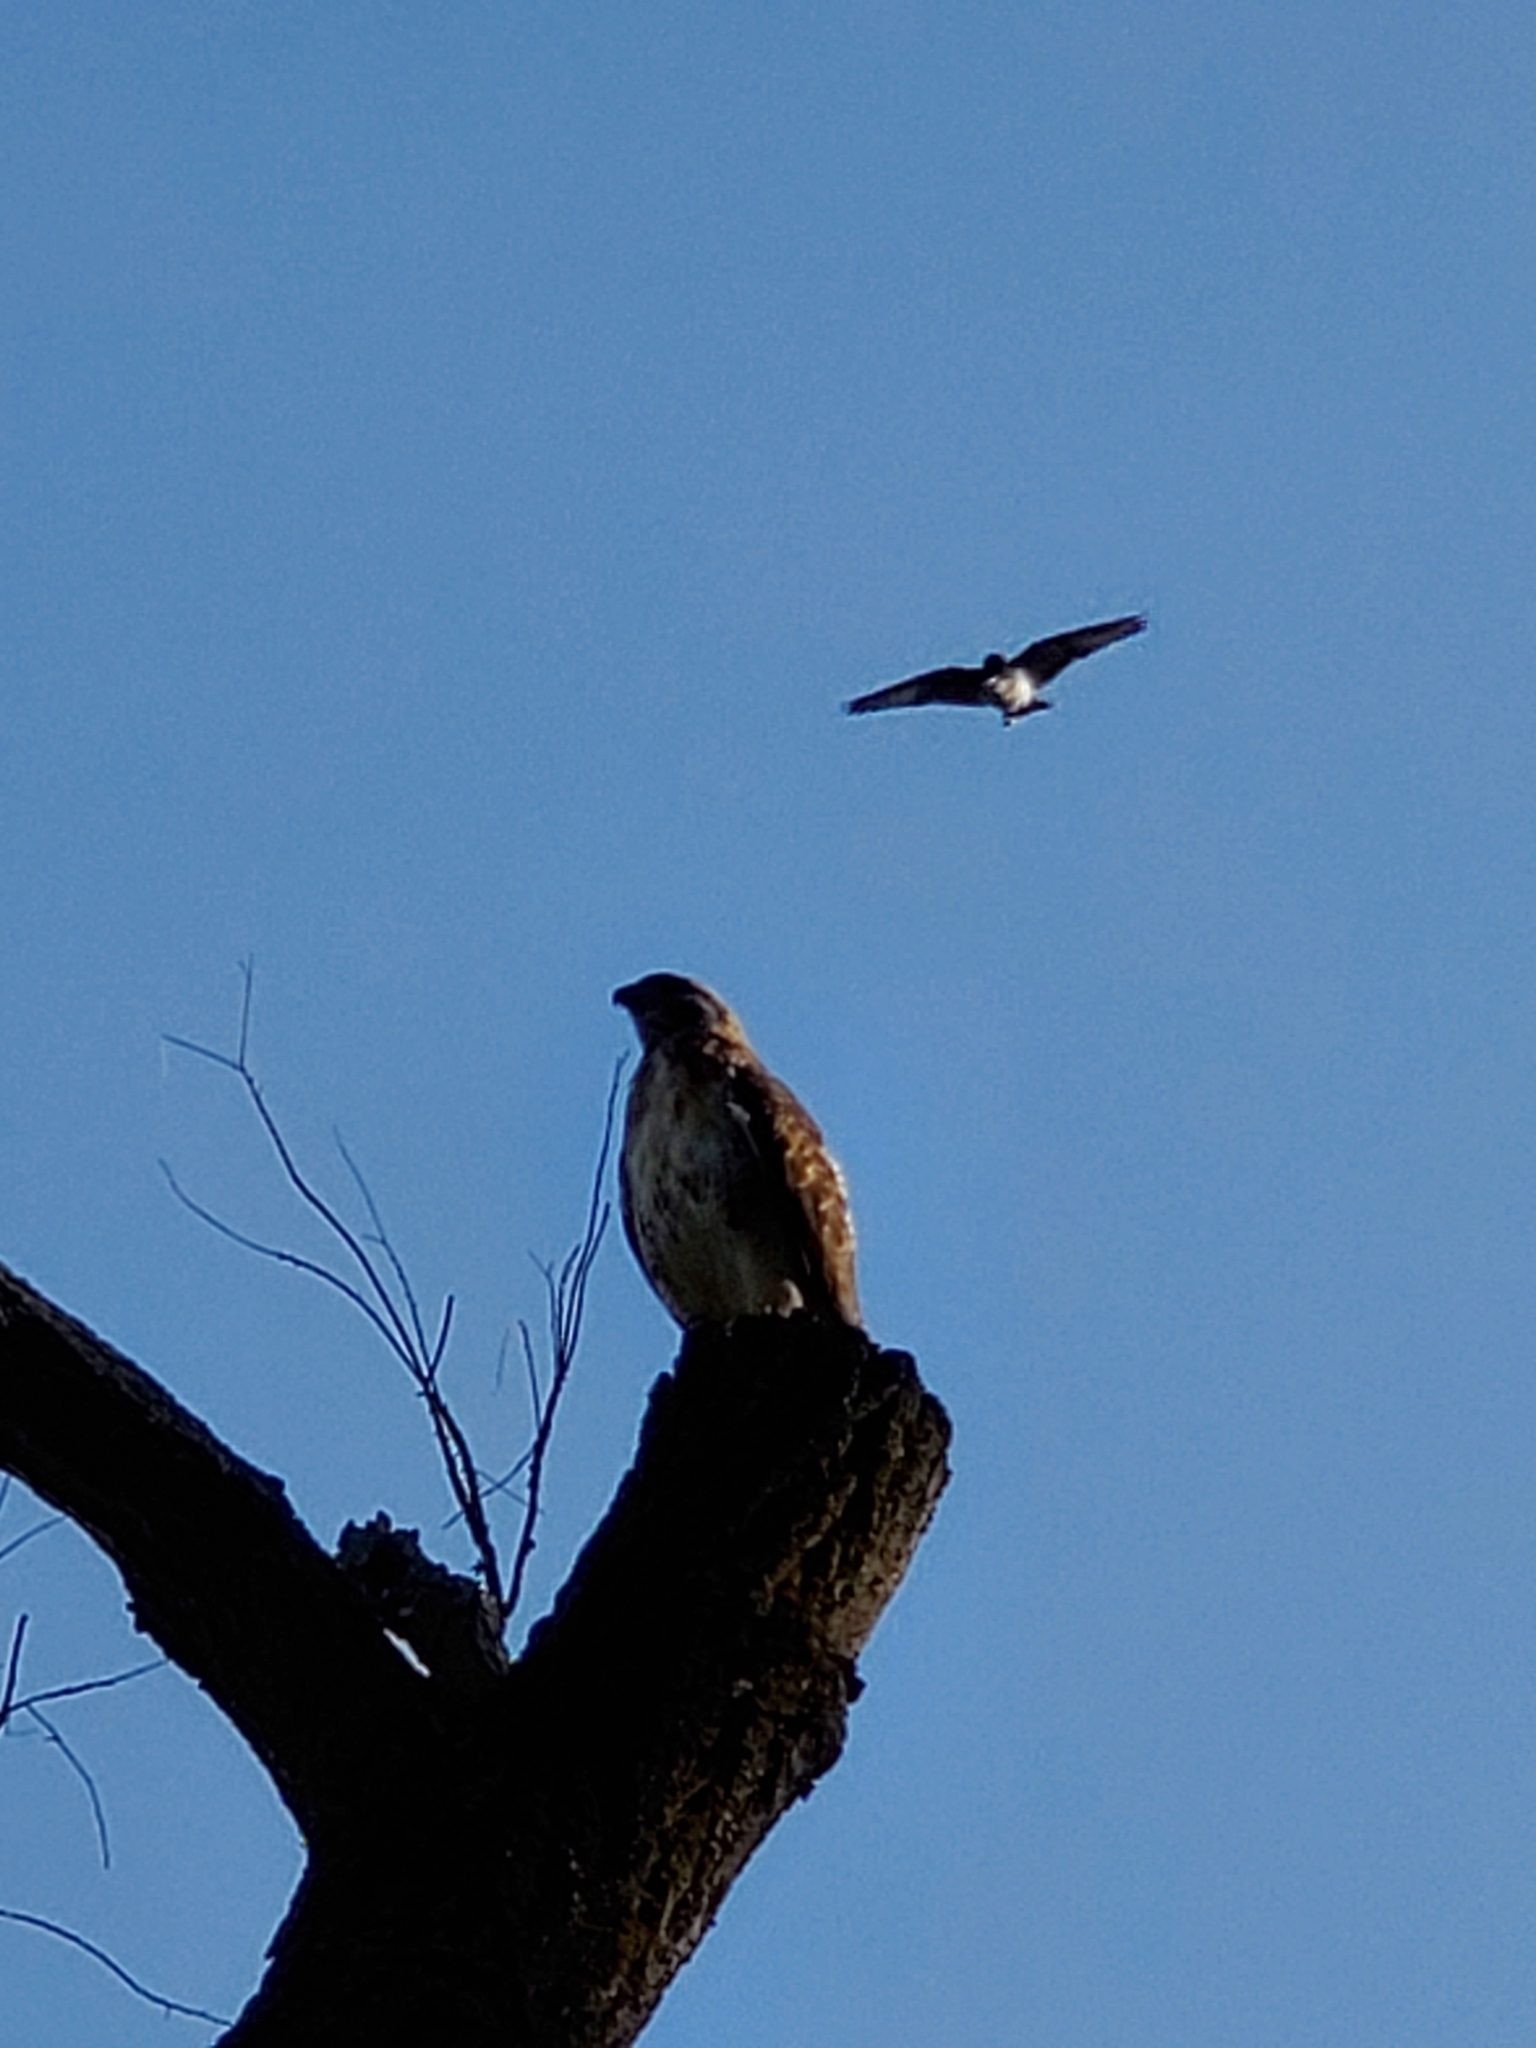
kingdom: Animalia
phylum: Chordata
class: Aves
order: Accipitriformes
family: Accipitridae
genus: Buteo
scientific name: Buteo jamaicensis
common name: Red-tailed hawk
